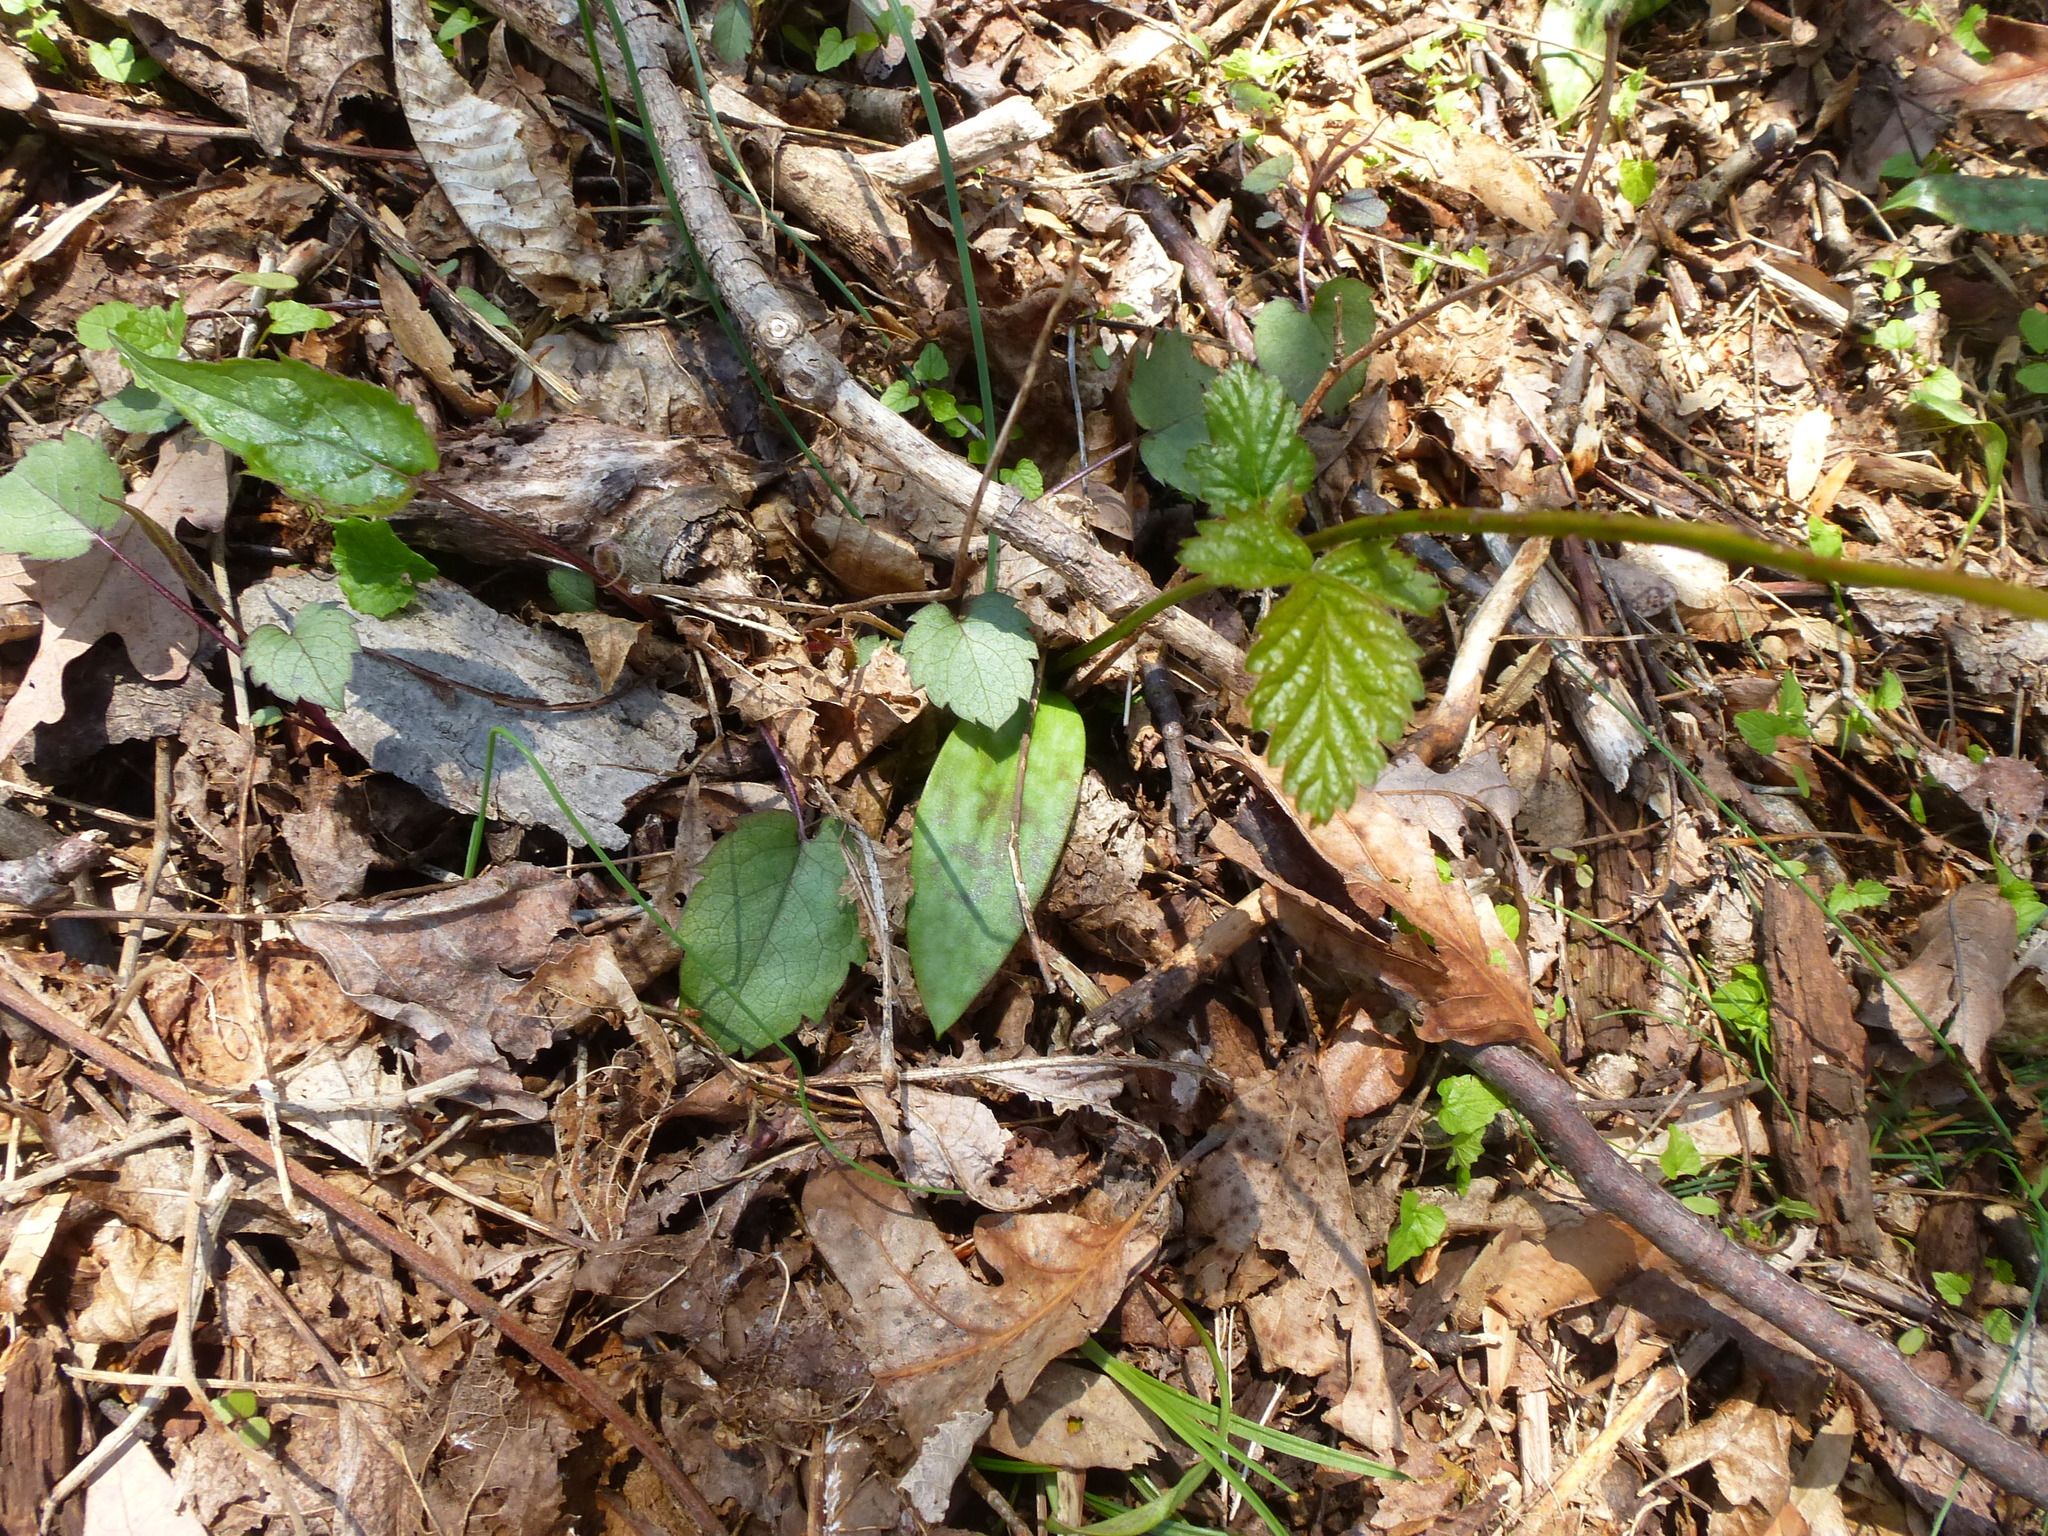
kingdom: Plantae
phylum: Tracheophyta
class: Liliopsida
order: Liliales
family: Liliaceae
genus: Erythronium
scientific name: Erythronium americanum
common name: Yellow adder's-tongue
